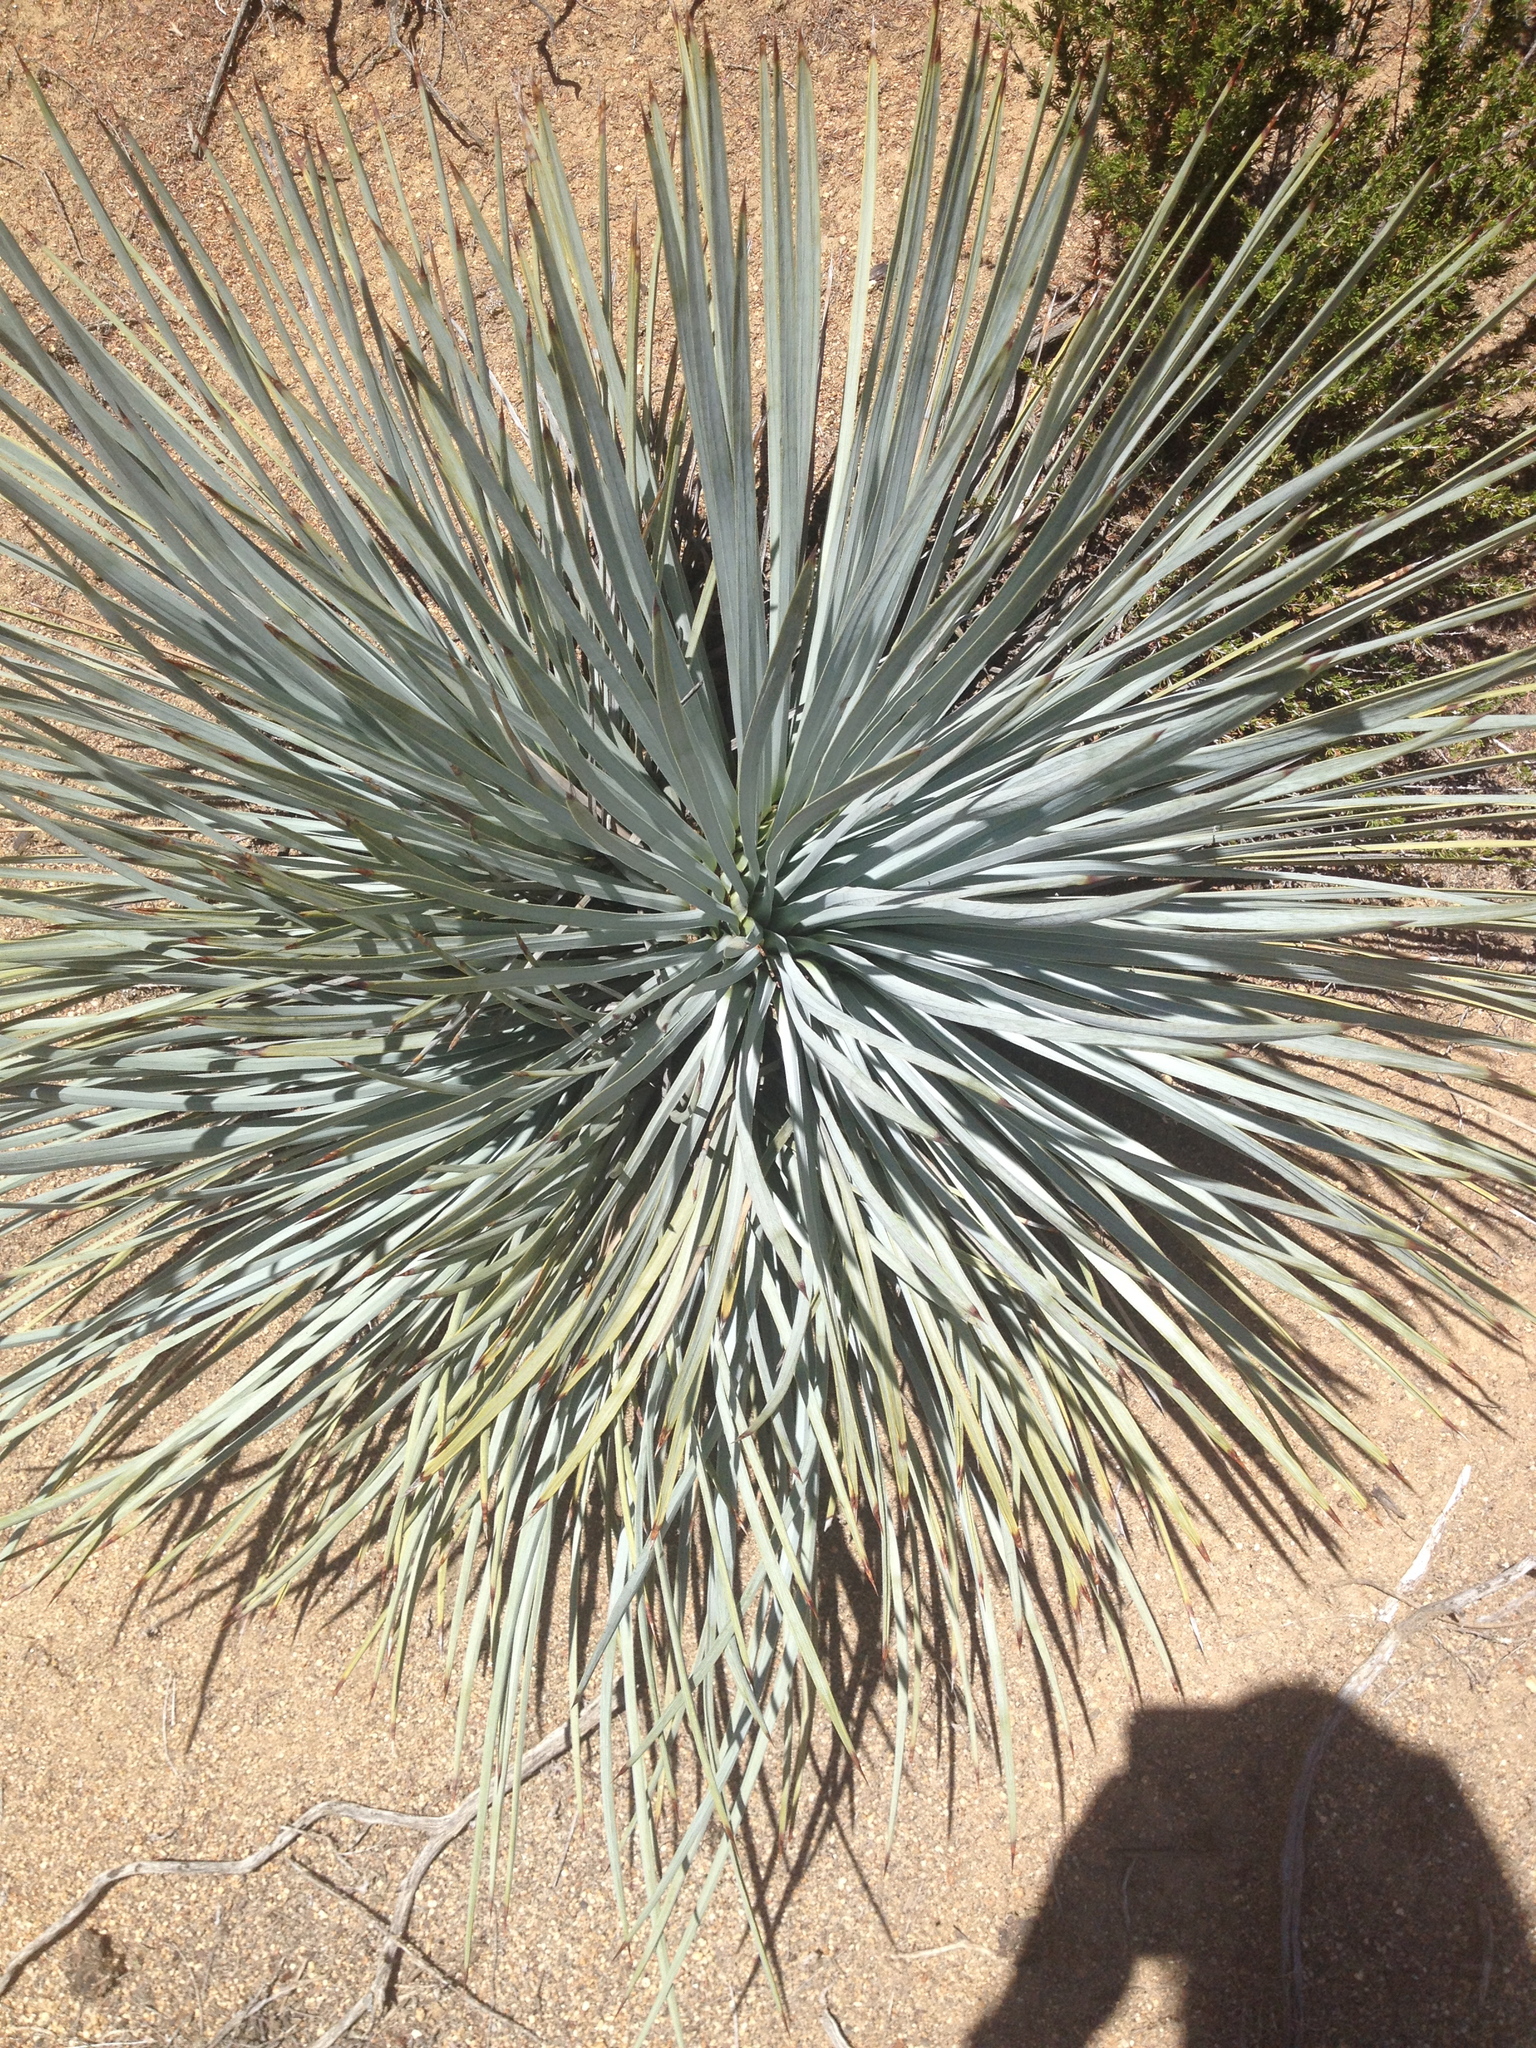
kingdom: Plantae
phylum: Tracheophyta
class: Liliopsida
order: Asparagales
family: Asparagaceae
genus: Hesperoyucca
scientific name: Hesperoyucca whipplei
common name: Our lord's-candle
